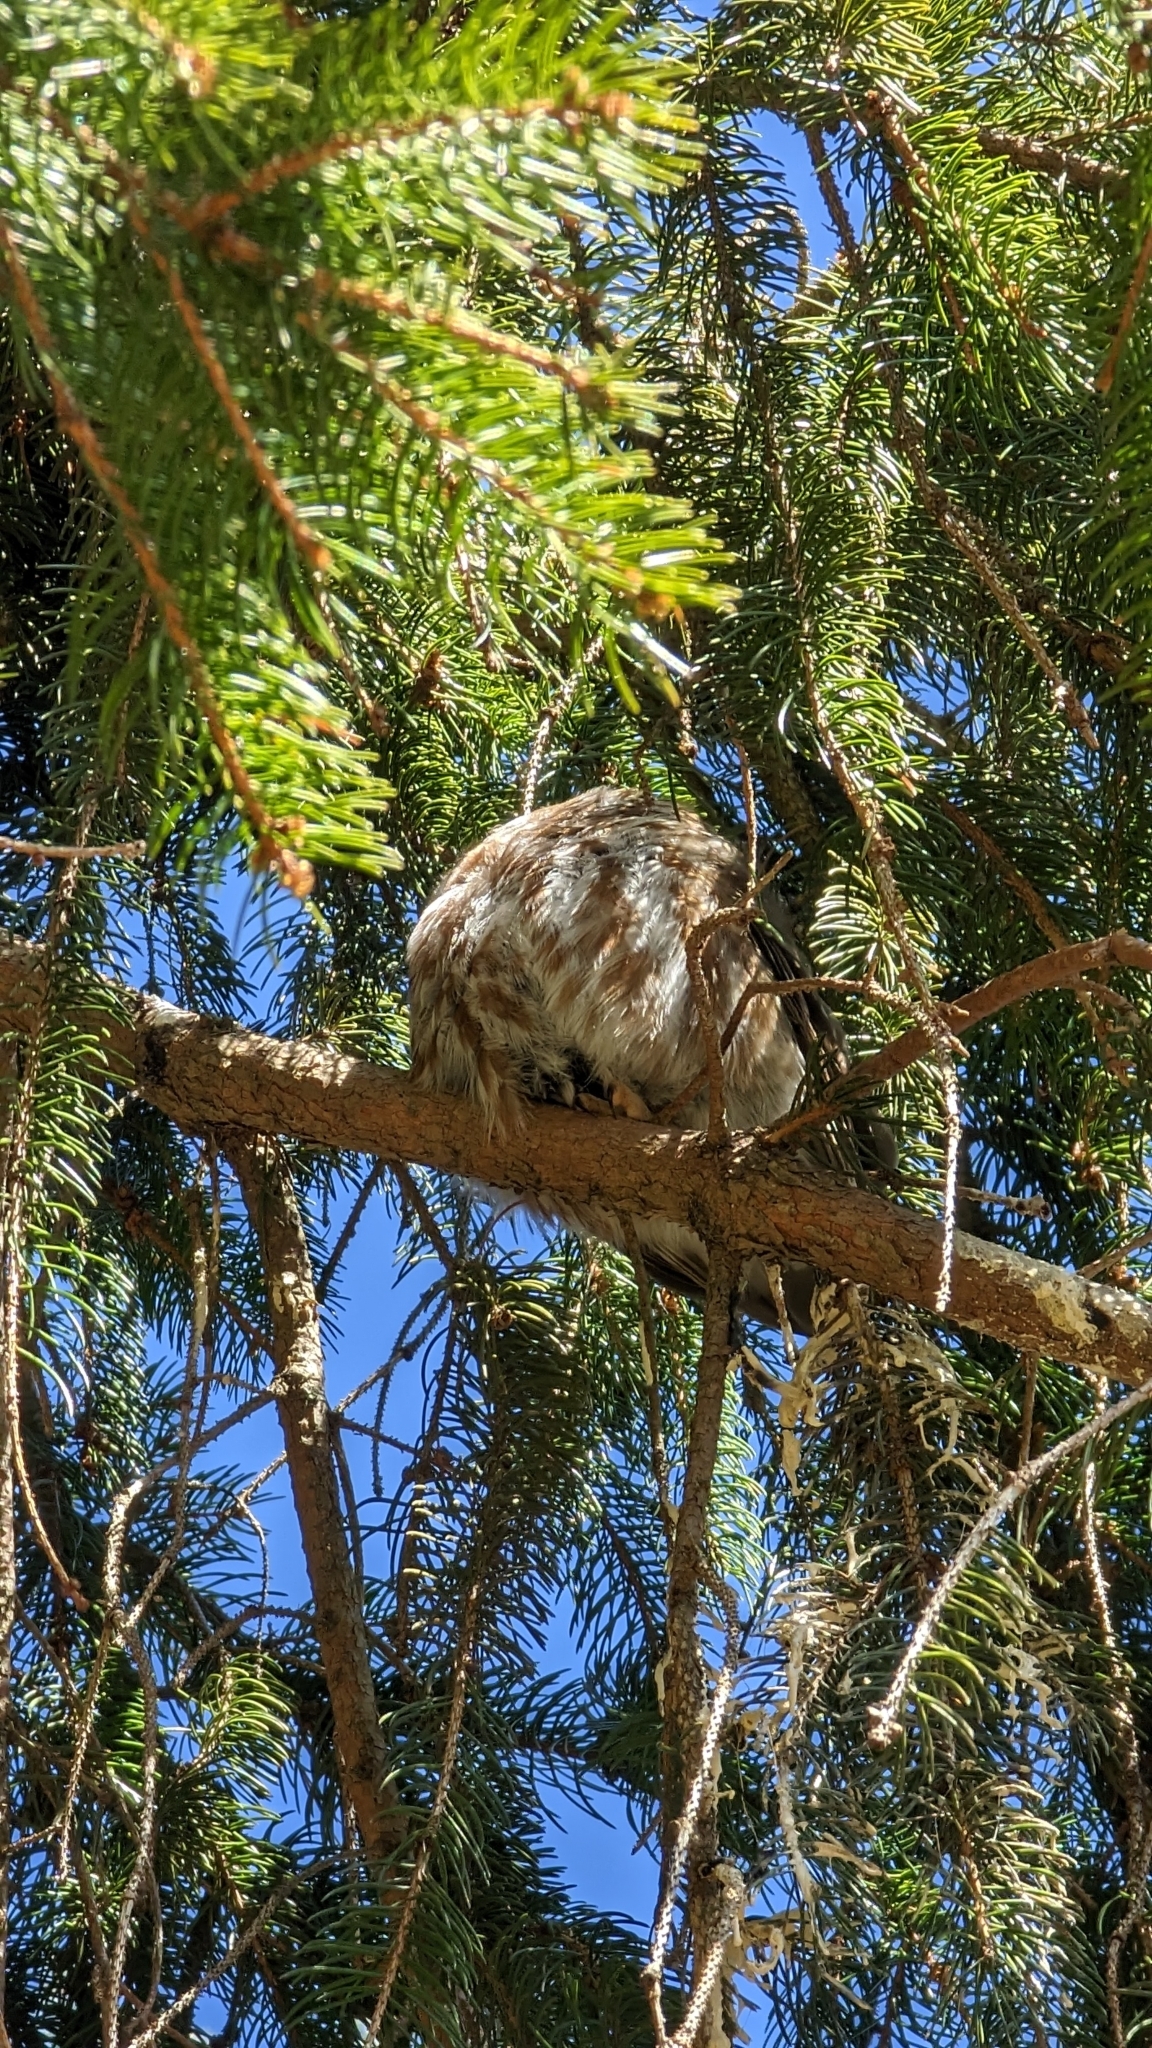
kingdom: Animalia
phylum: Chordata
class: Aves
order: Strigiformes
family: Strigidae
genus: Aegolius
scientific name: Aegolius acadicus
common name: Northern saw-whet owl
